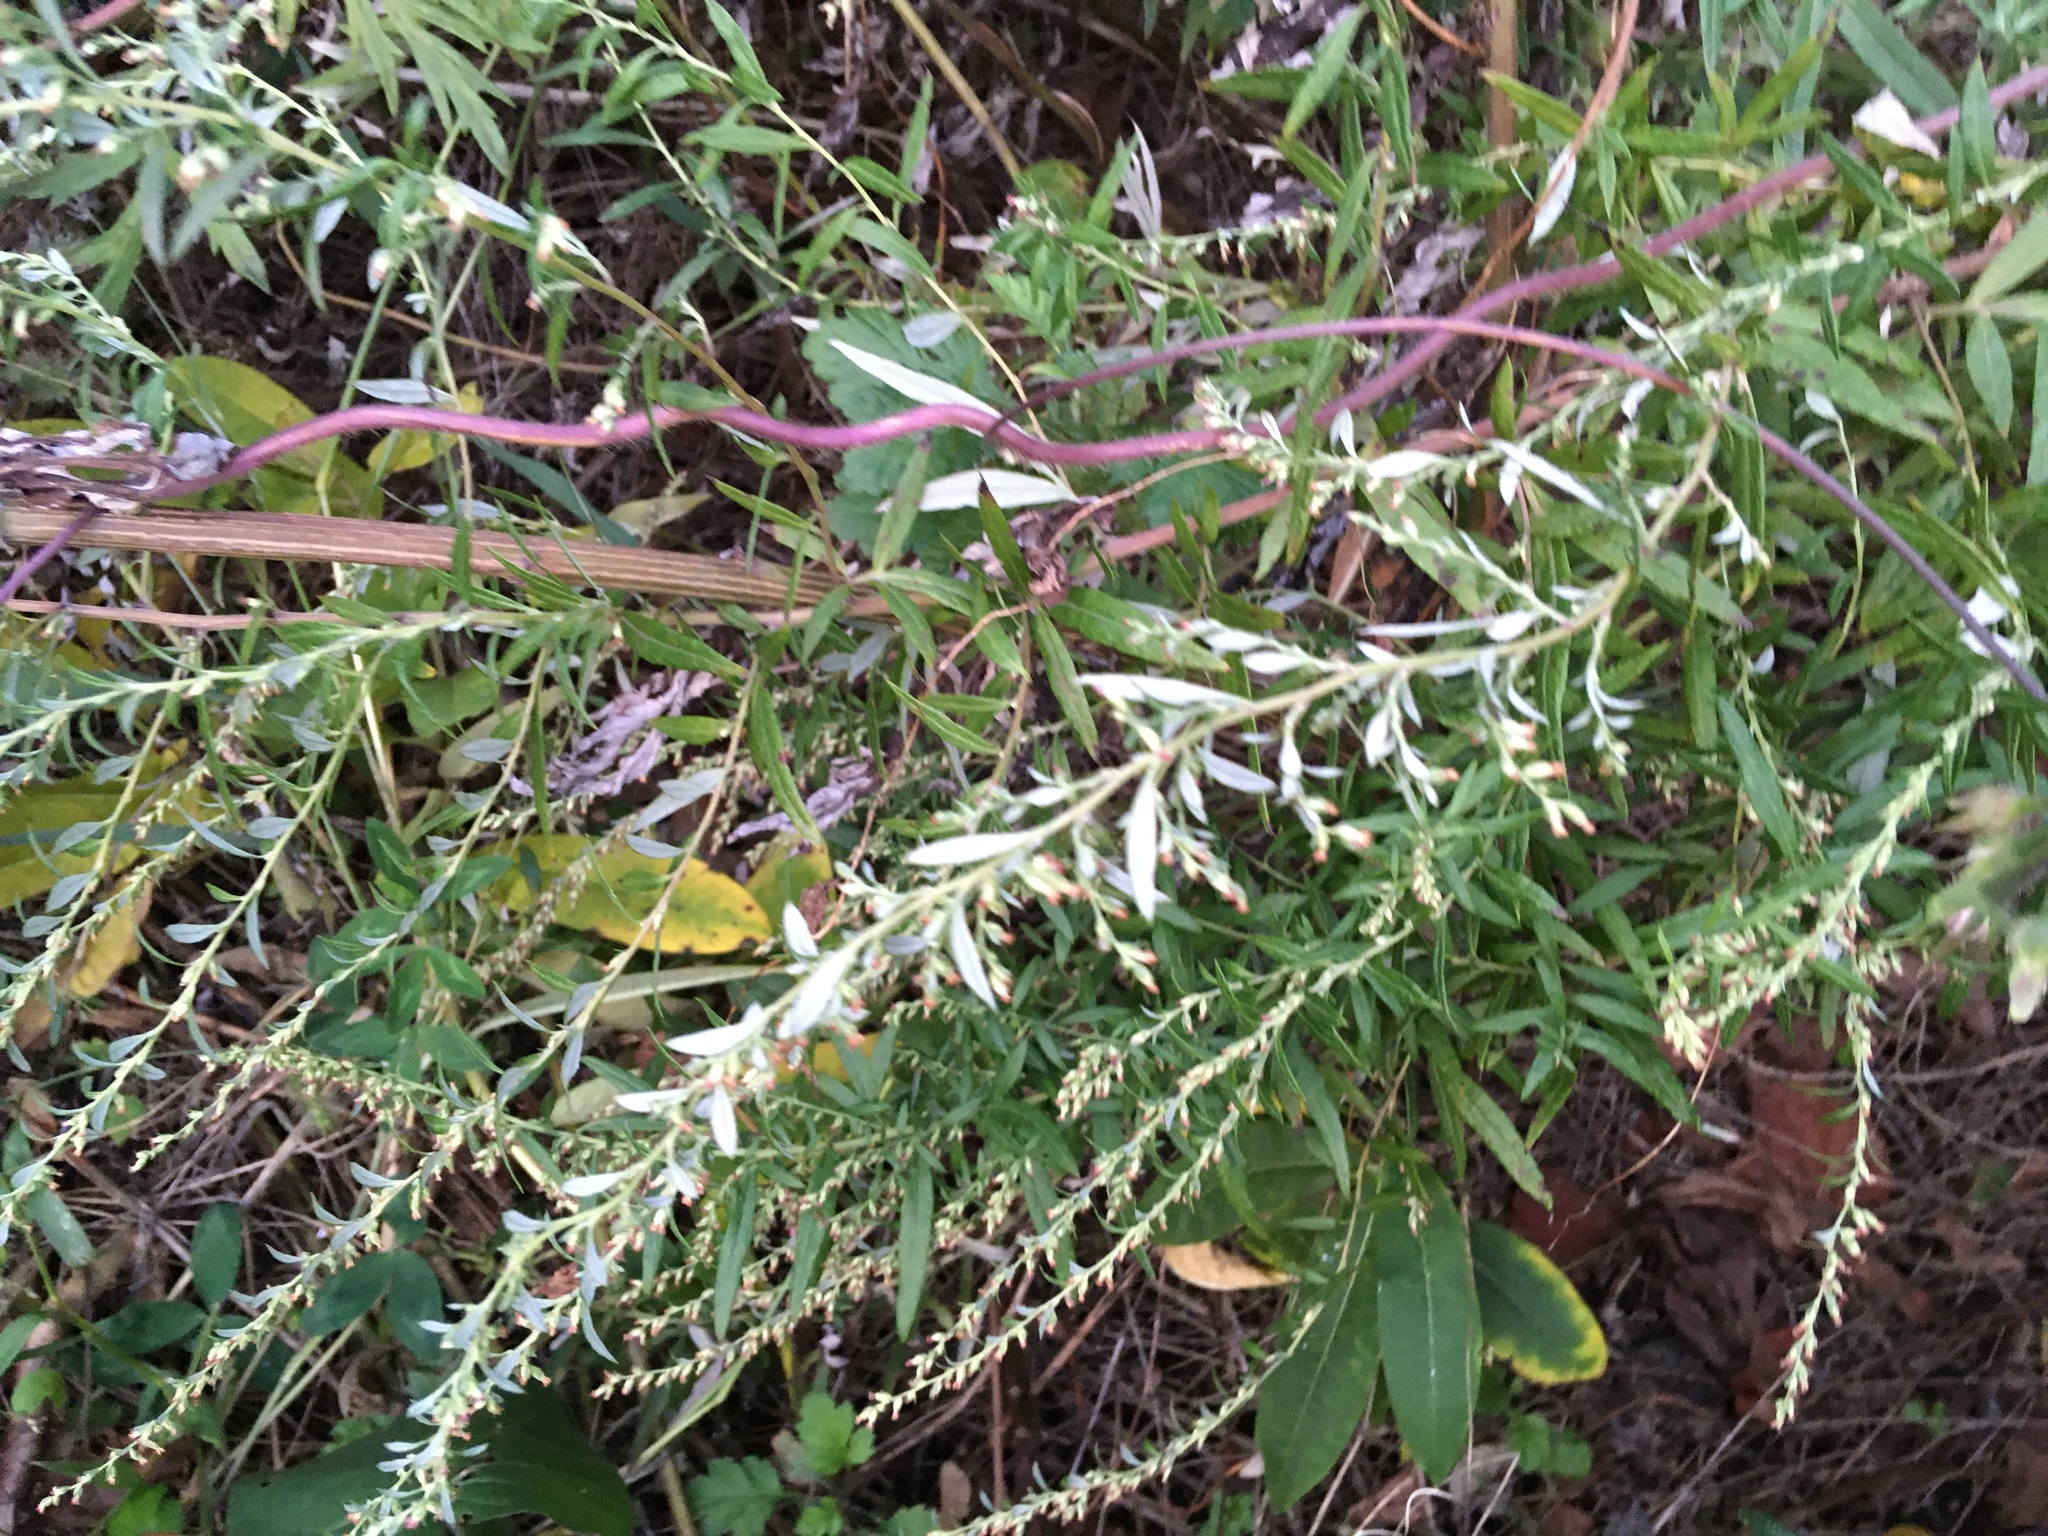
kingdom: Plantae
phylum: Tracheophyta
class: Magnoliopsida
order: Asterales
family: Asteraceae
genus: Artemisia
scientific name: Artemisia vulgaris
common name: Mugwort
